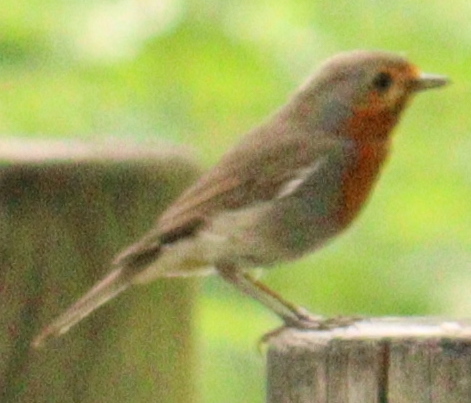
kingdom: Animalia
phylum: Chordata
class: Aves
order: Passeriformes
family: Muscicapidae
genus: Erithacus
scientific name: Erithacus rubecula
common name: European robin
